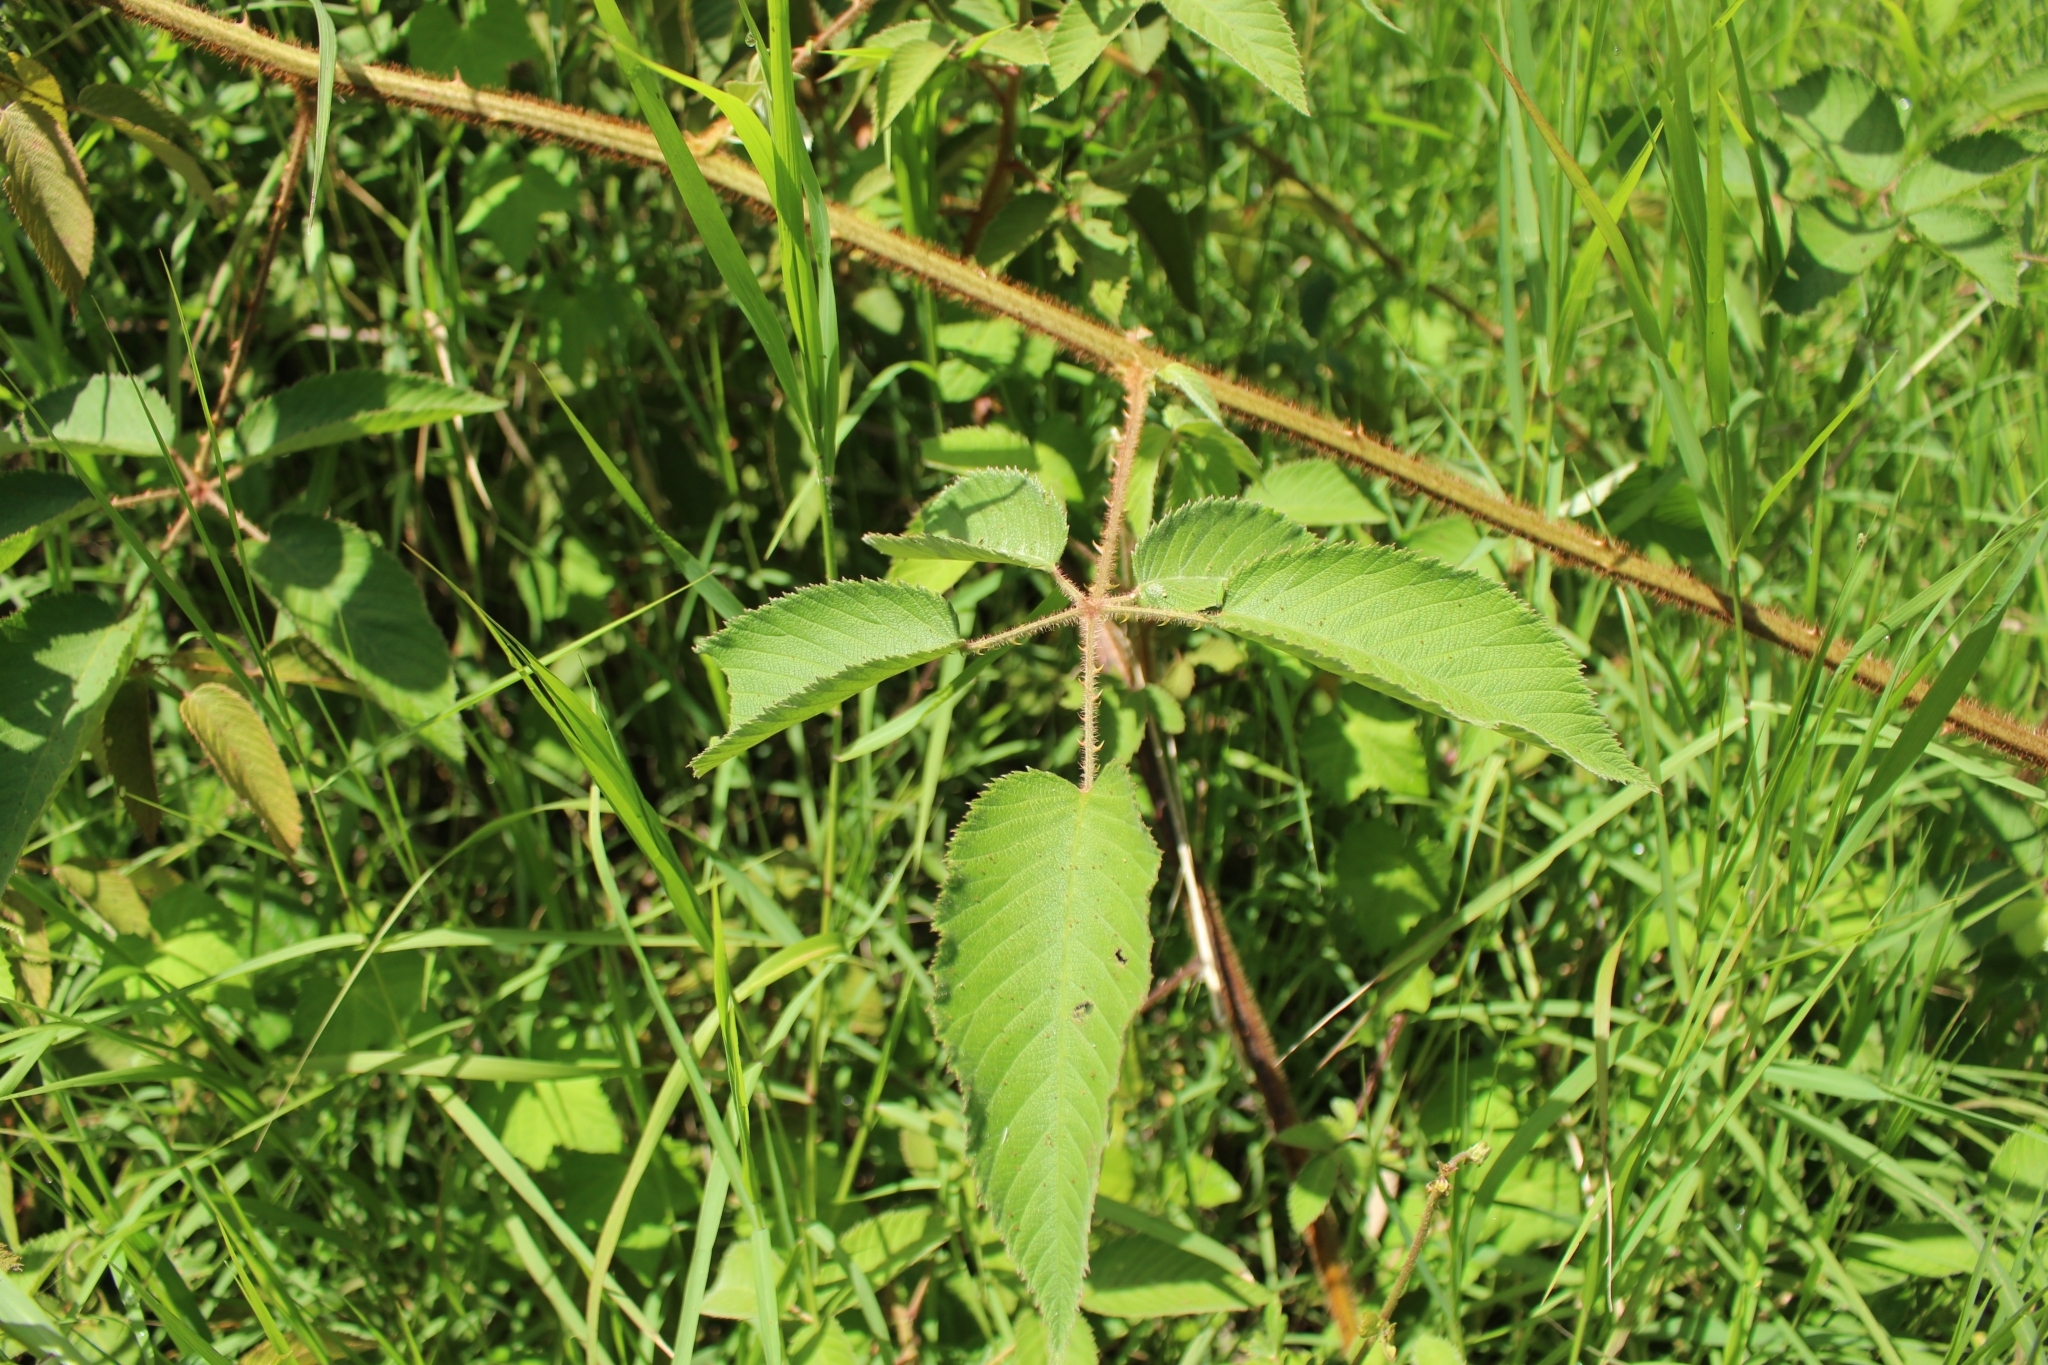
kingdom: Plantae
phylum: Tracheophyta
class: Magnoliopsida
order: Rosales
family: Rosaceae
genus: Rubus
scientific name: Rubus urticifolius
